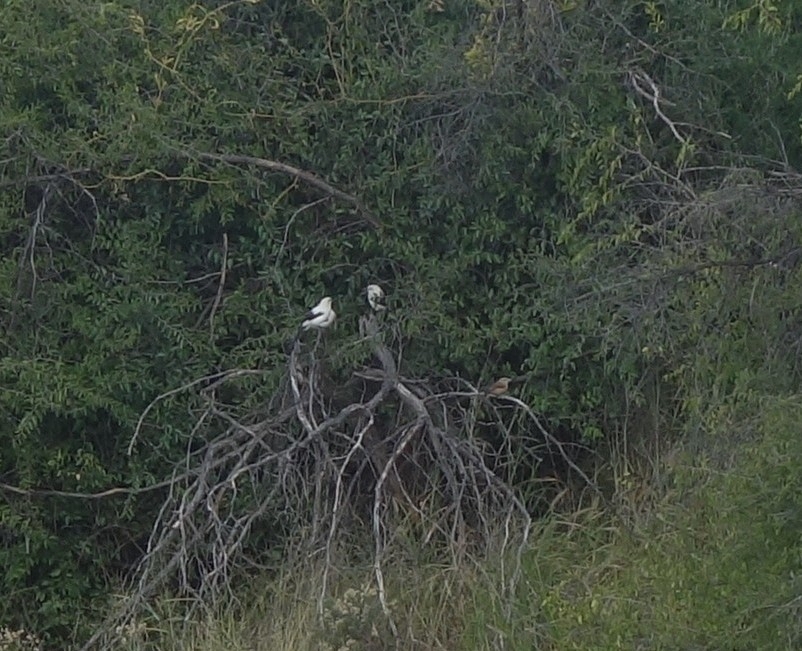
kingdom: Animalia
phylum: Chordata
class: Aves
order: Passeriformes
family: Leiothrichidae
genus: Turdoides
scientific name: Turdoides bicolor
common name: Southern pied babbler
